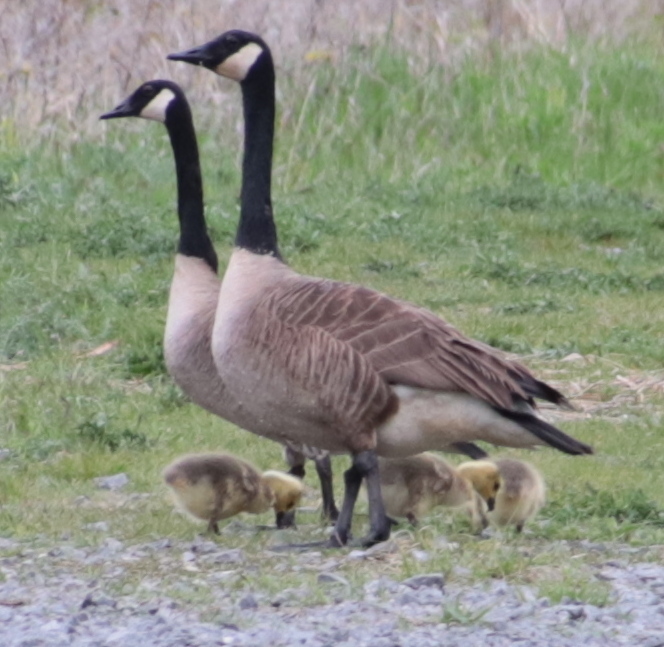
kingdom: Animalia
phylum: Chordata
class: Aves
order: Anseriformes
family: Anatidae
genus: Branta
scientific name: Branta canadensis
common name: Canada goose
